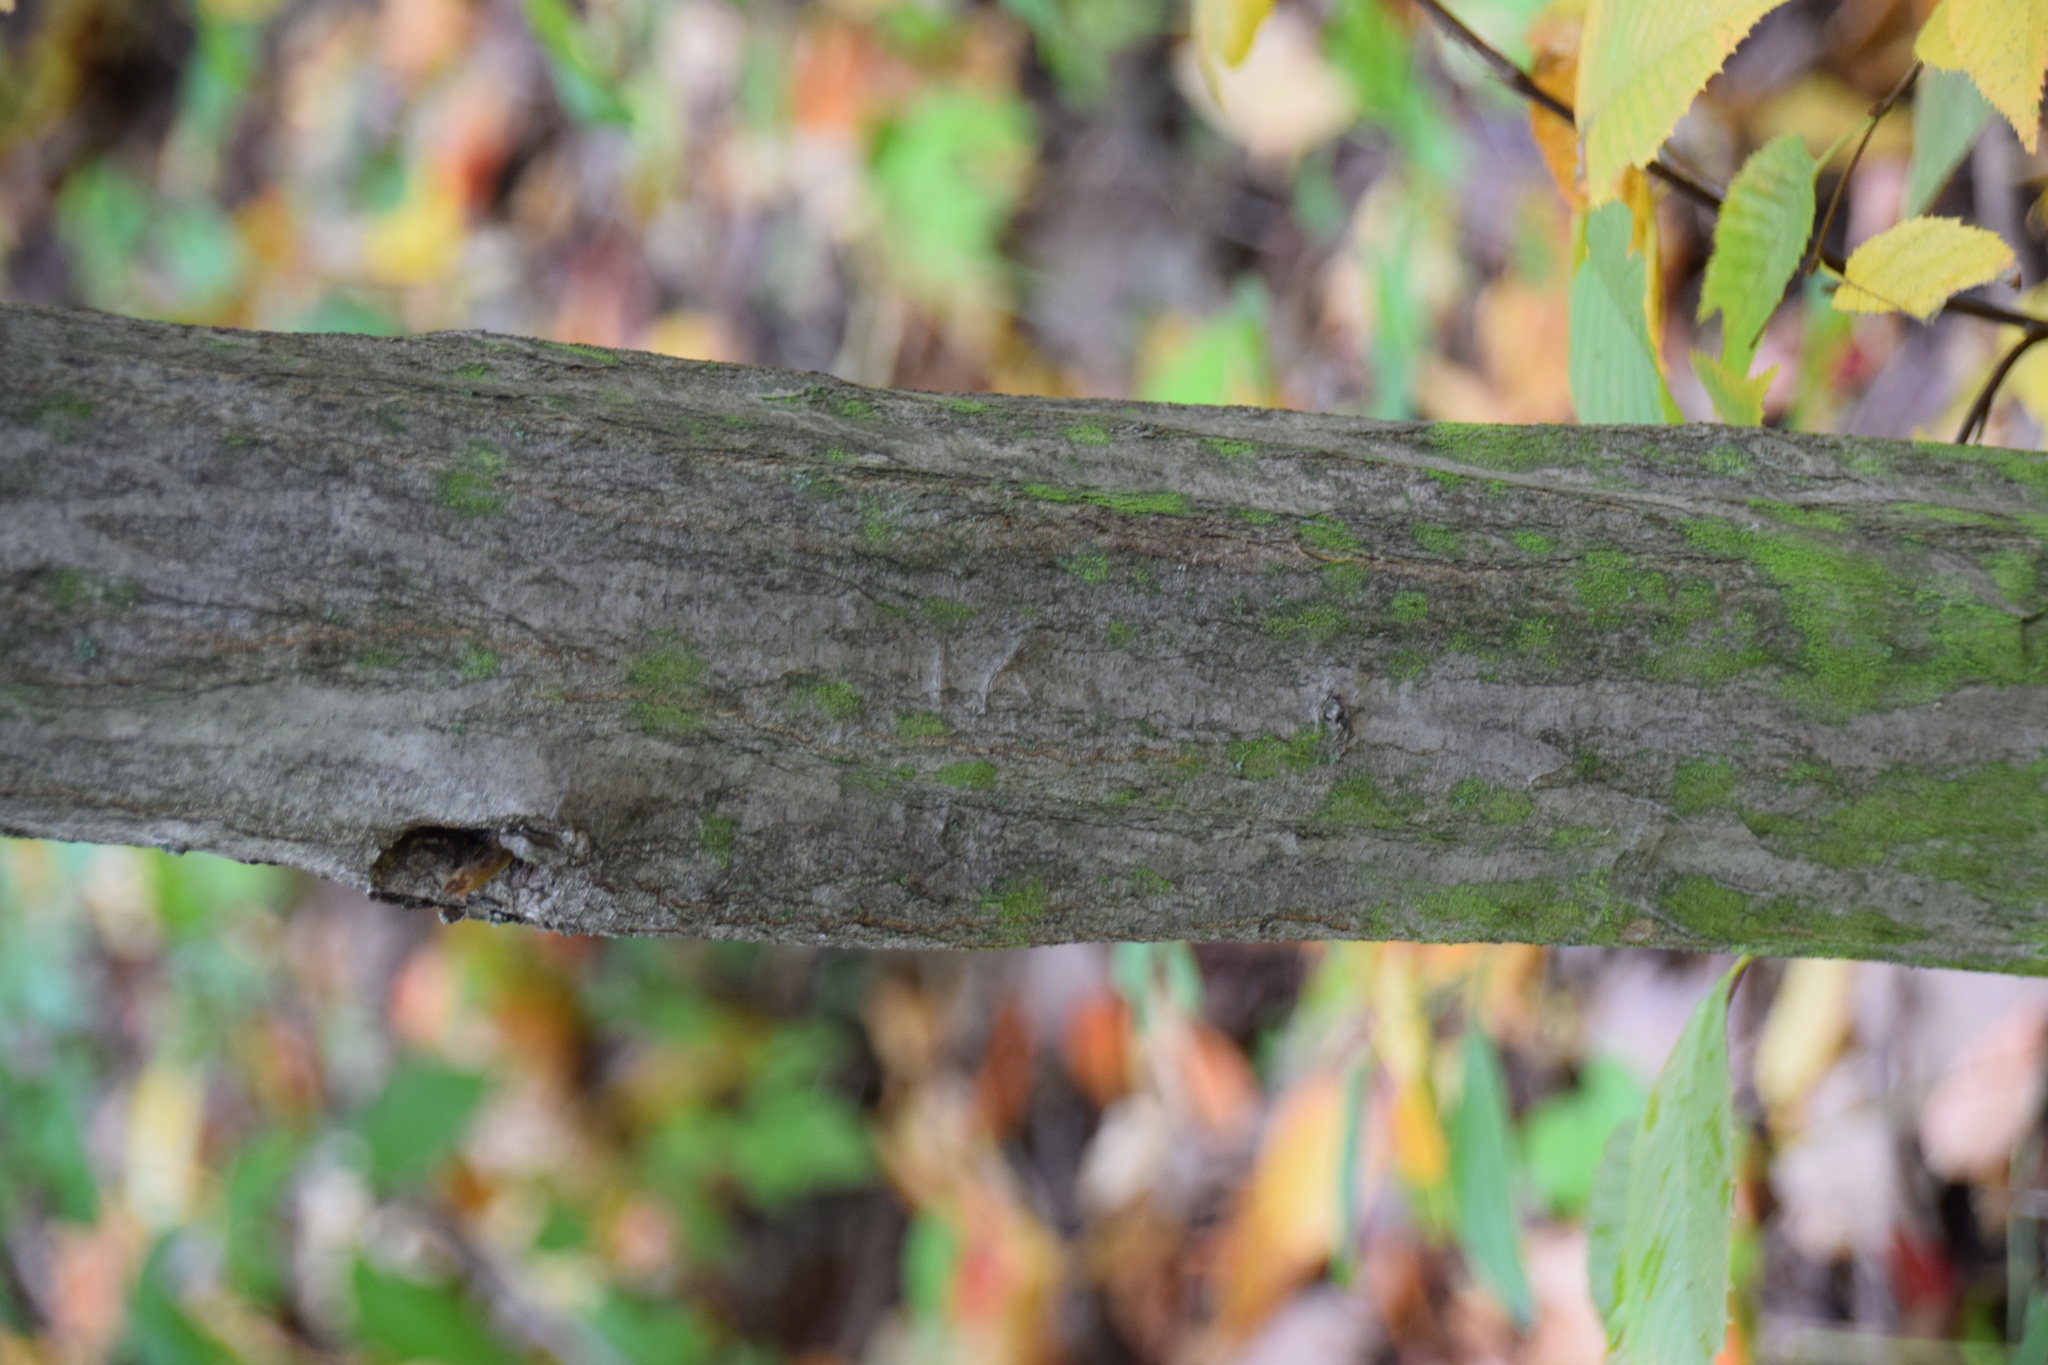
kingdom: Plantae
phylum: Tracheophyta
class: Magnoliopsida
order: Fagales
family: Betulaceae
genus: Carpinus
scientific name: Carpinus caroliniana
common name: American hornbeam
